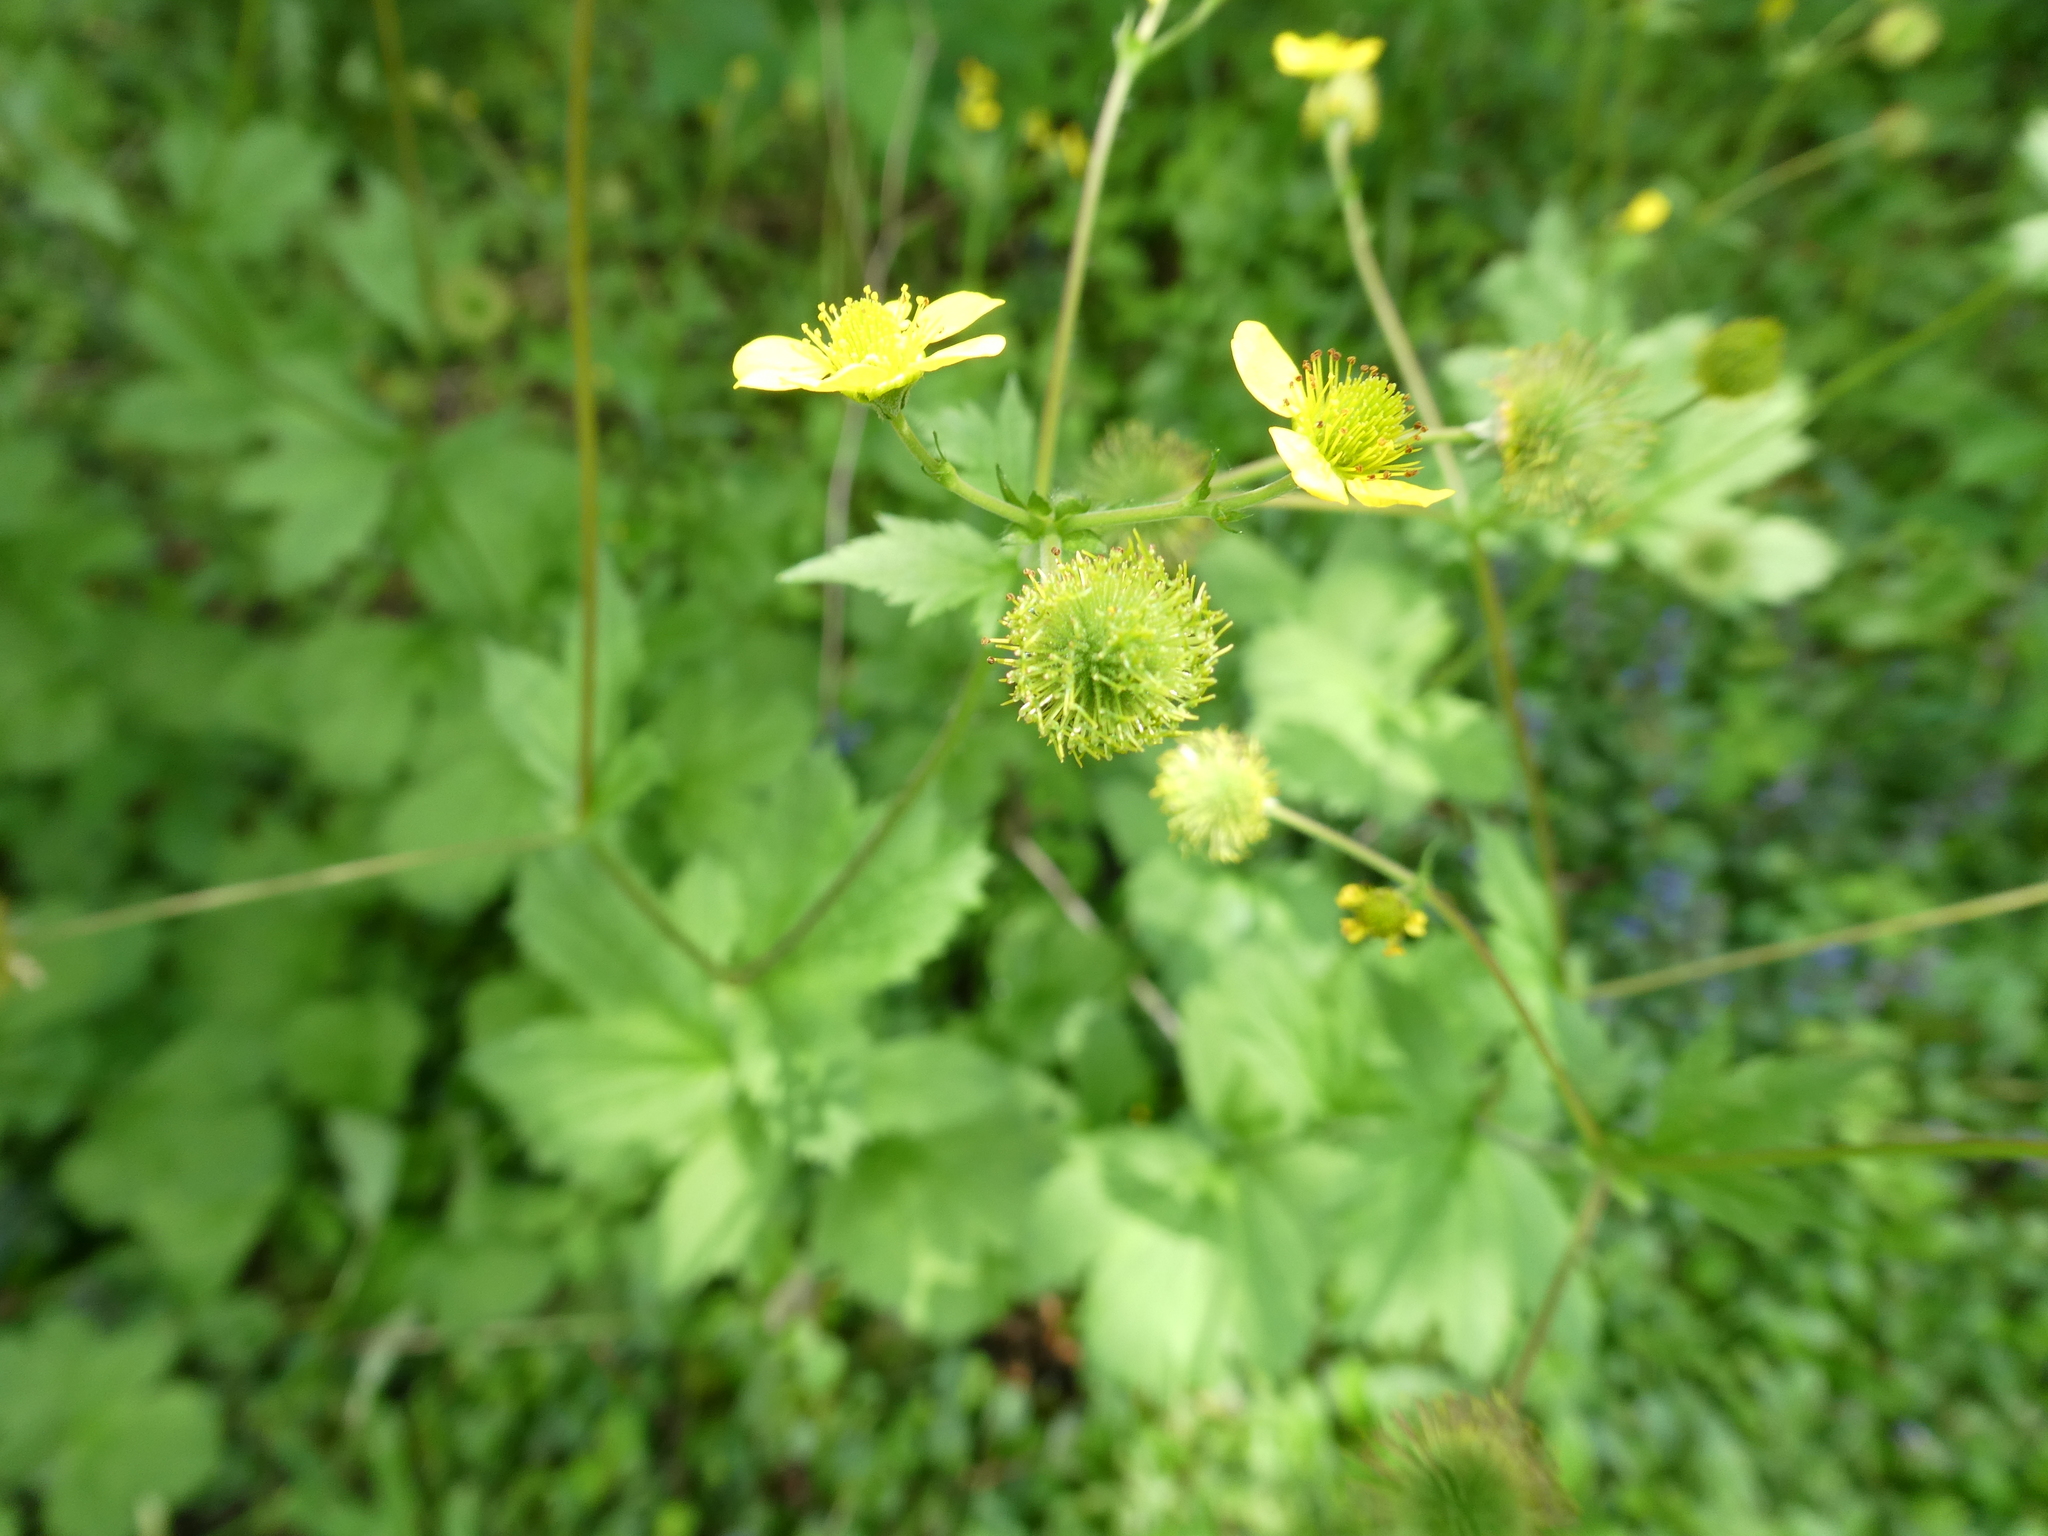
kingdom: Plantae
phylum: Tracheophyta
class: Magnoliopsida
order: Rosales
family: Rosaceae
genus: Geum
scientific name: Geum macrophyllum
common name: Large-leaved avens
